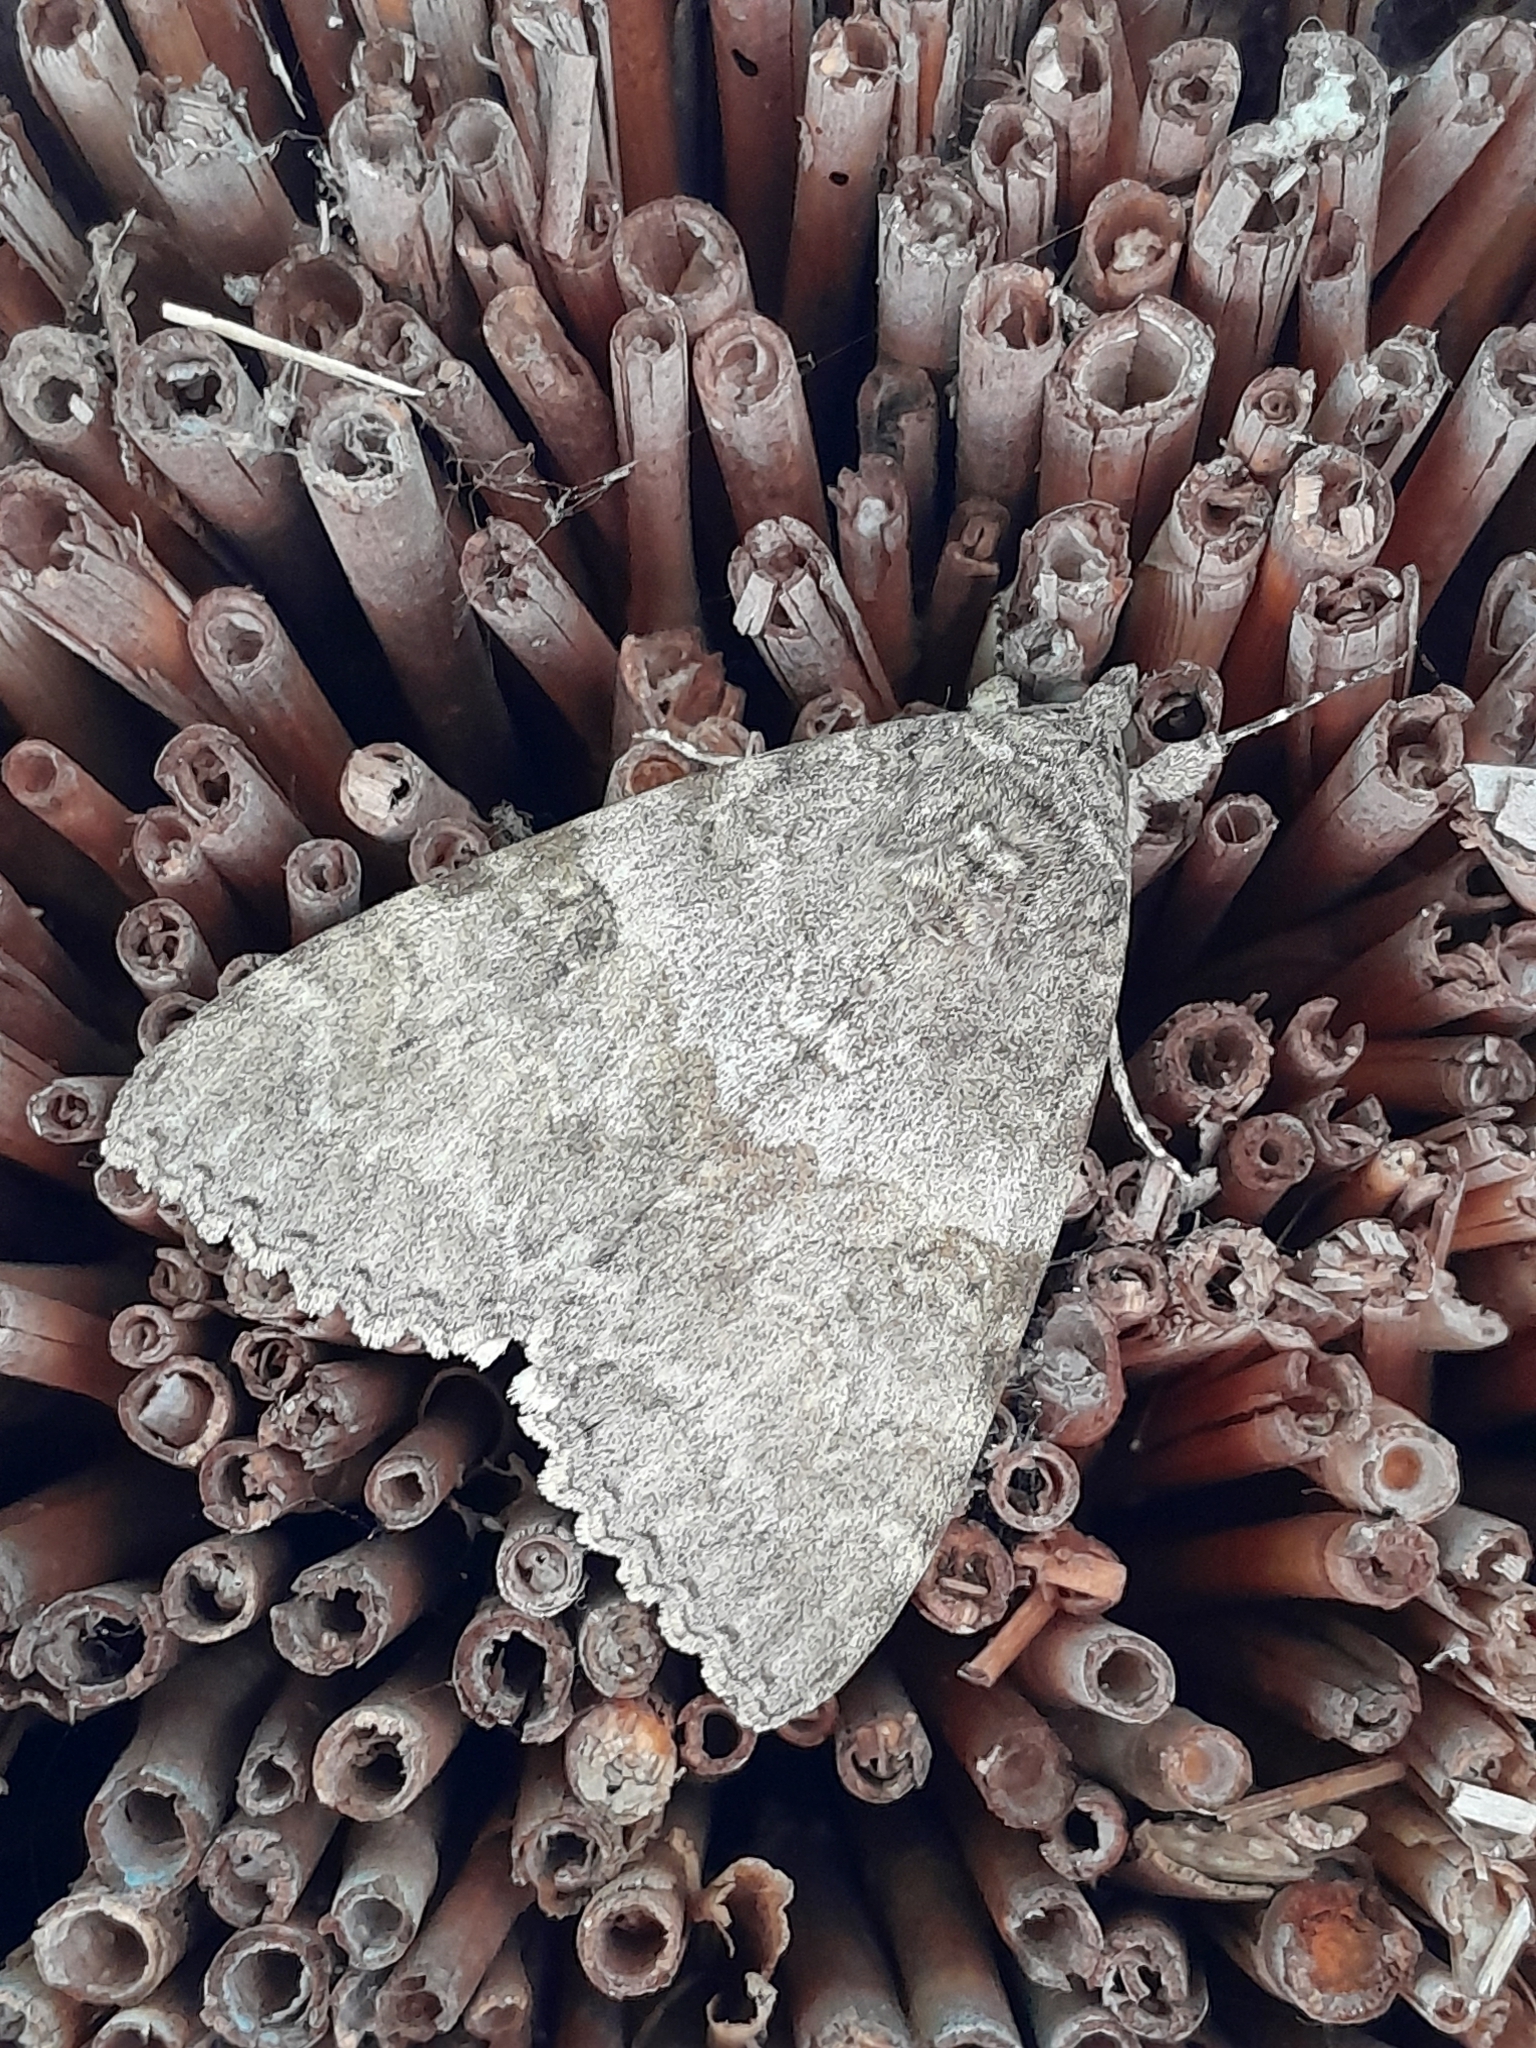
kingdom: Animalia
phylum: Arthropoda
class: Insecta
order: Lepidoptera
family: Erebidae
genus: Catocala
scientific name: Catocala nupta
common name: Red underwing
